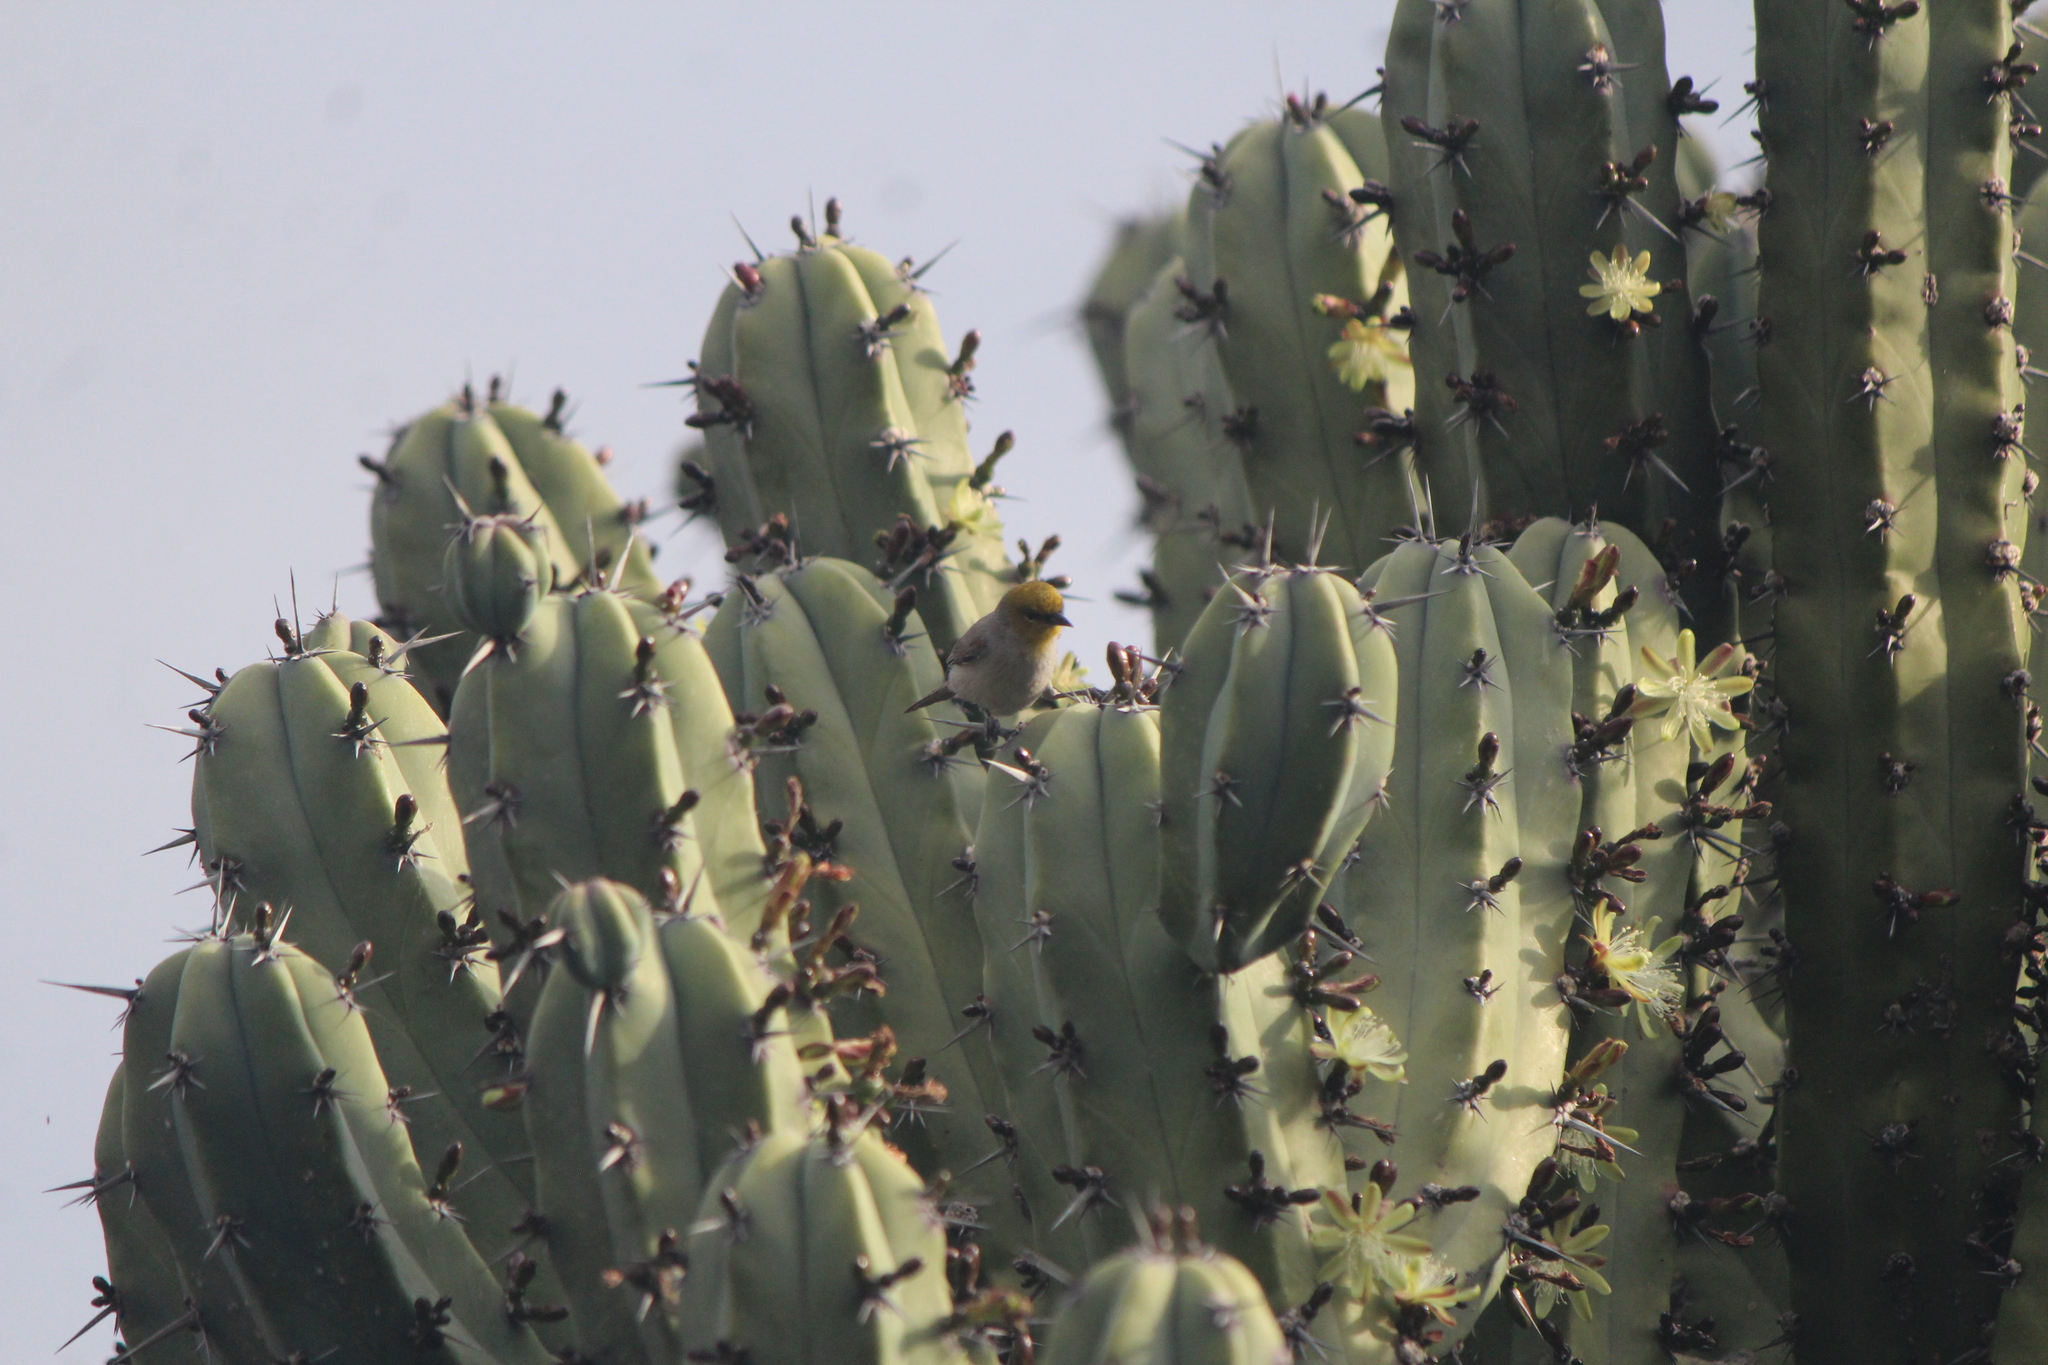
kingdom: Animalia
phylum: Chordata
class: Aves
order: Passeriformes
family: Remizidae
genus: Auriparus
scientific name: Auriparus flaviceps
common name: Verdin
